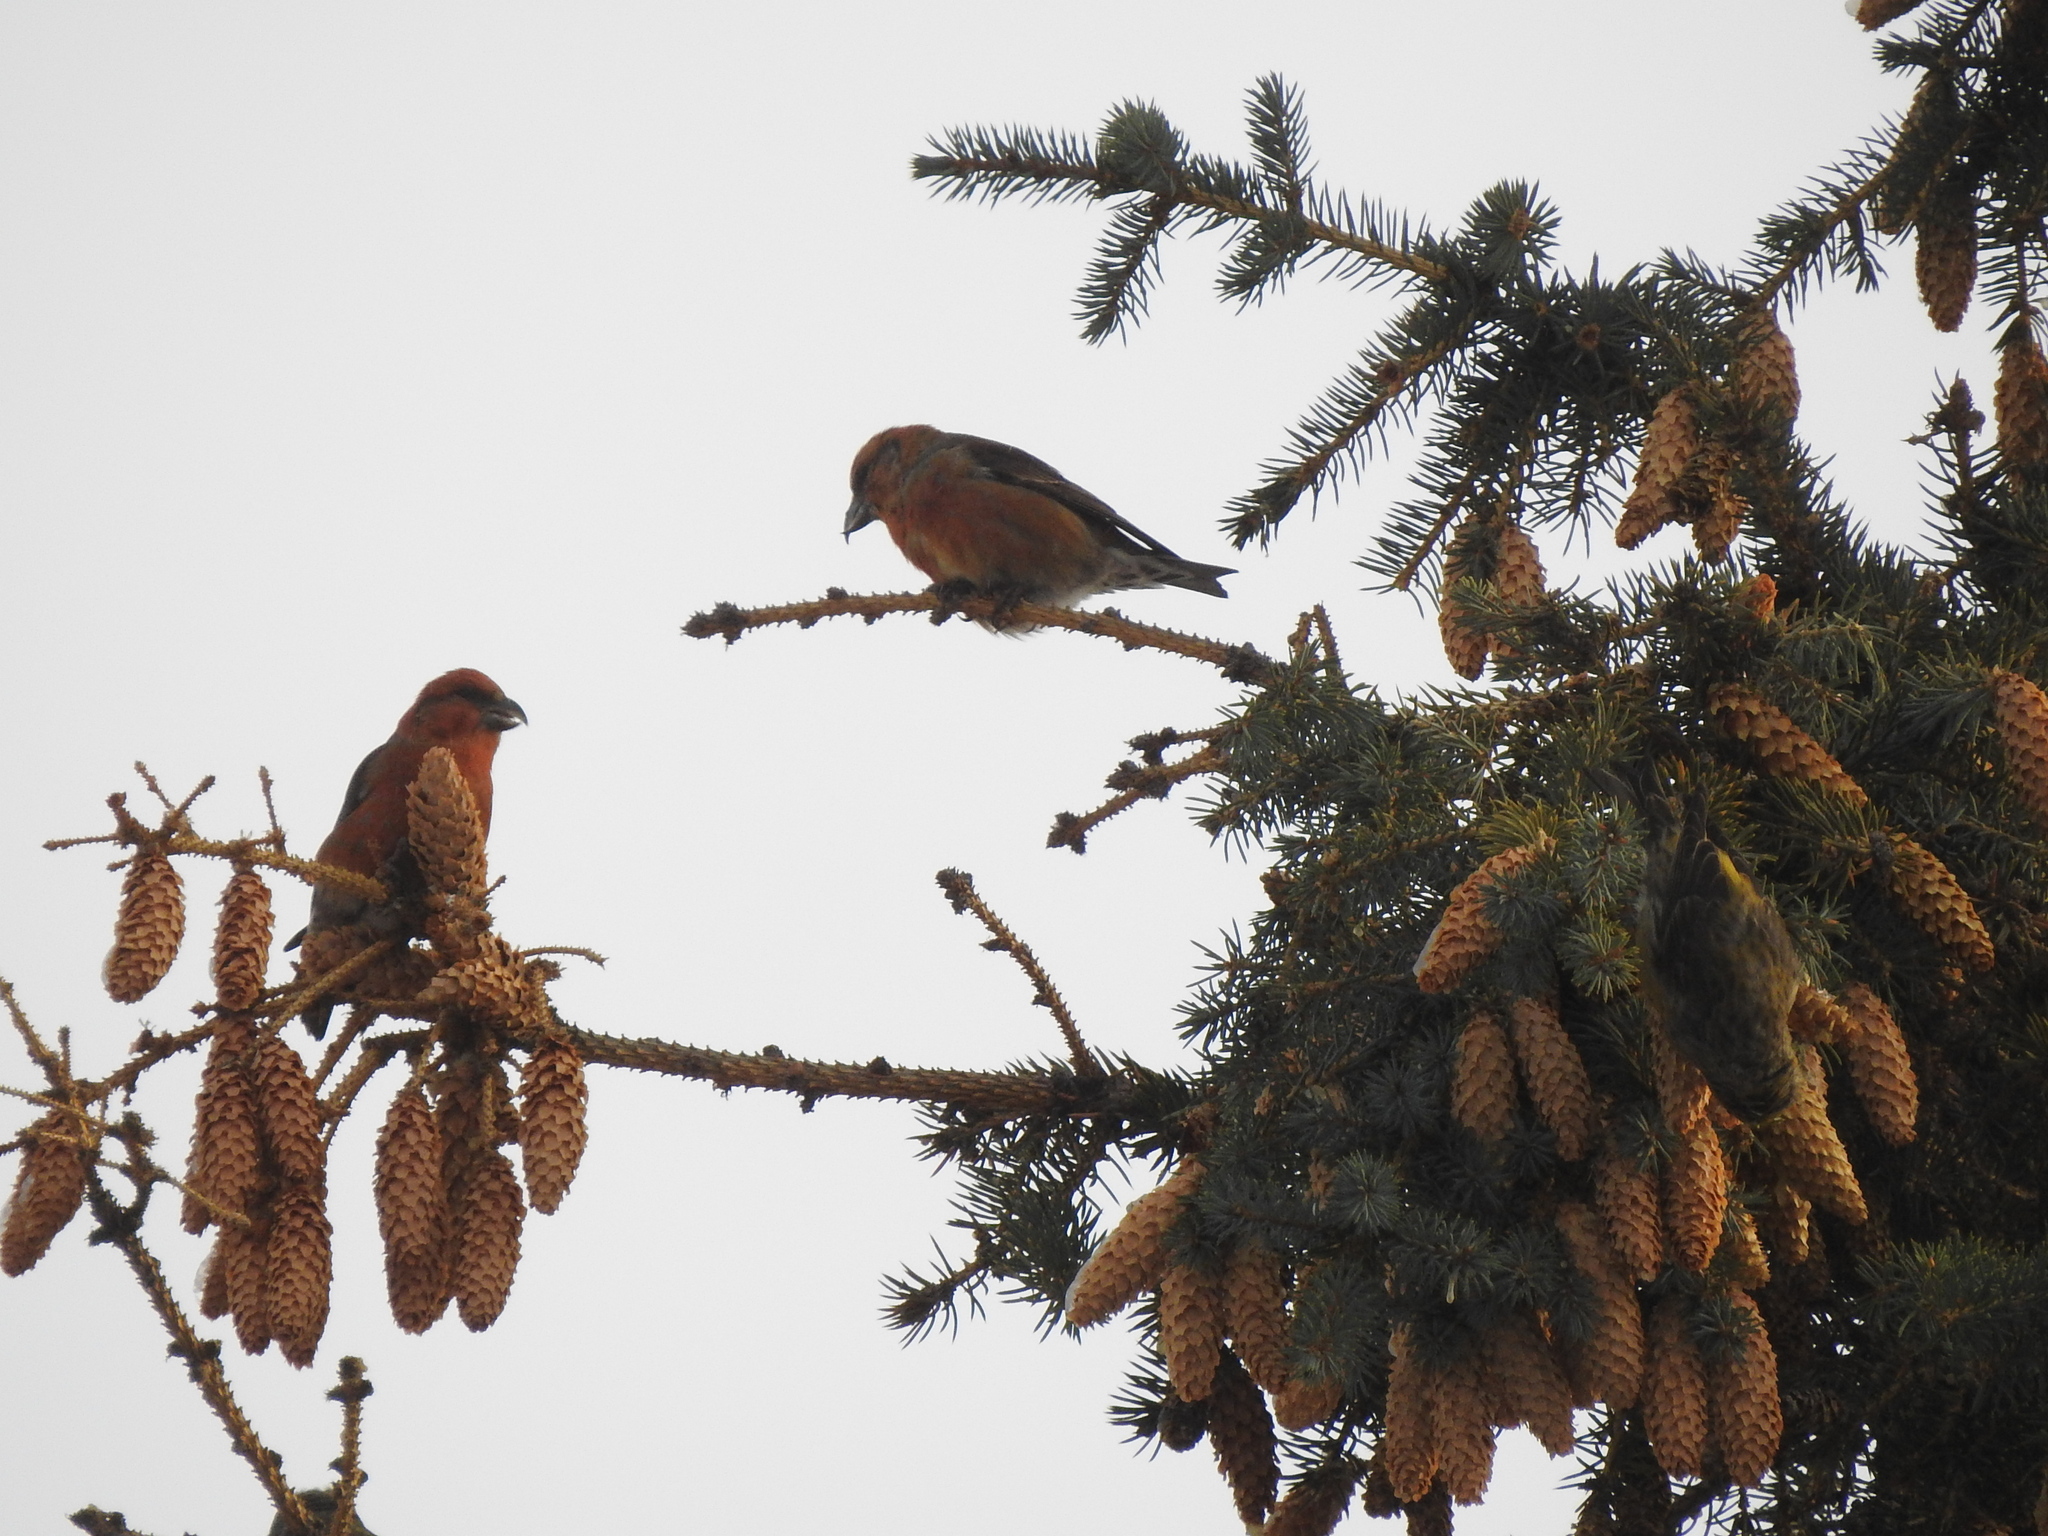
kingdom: Animalia
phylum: Chordata
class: Aves
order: Passeriformes
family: Fringillidae
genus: Loxia
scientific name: Loxia curvirostra
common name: Red crossbill
